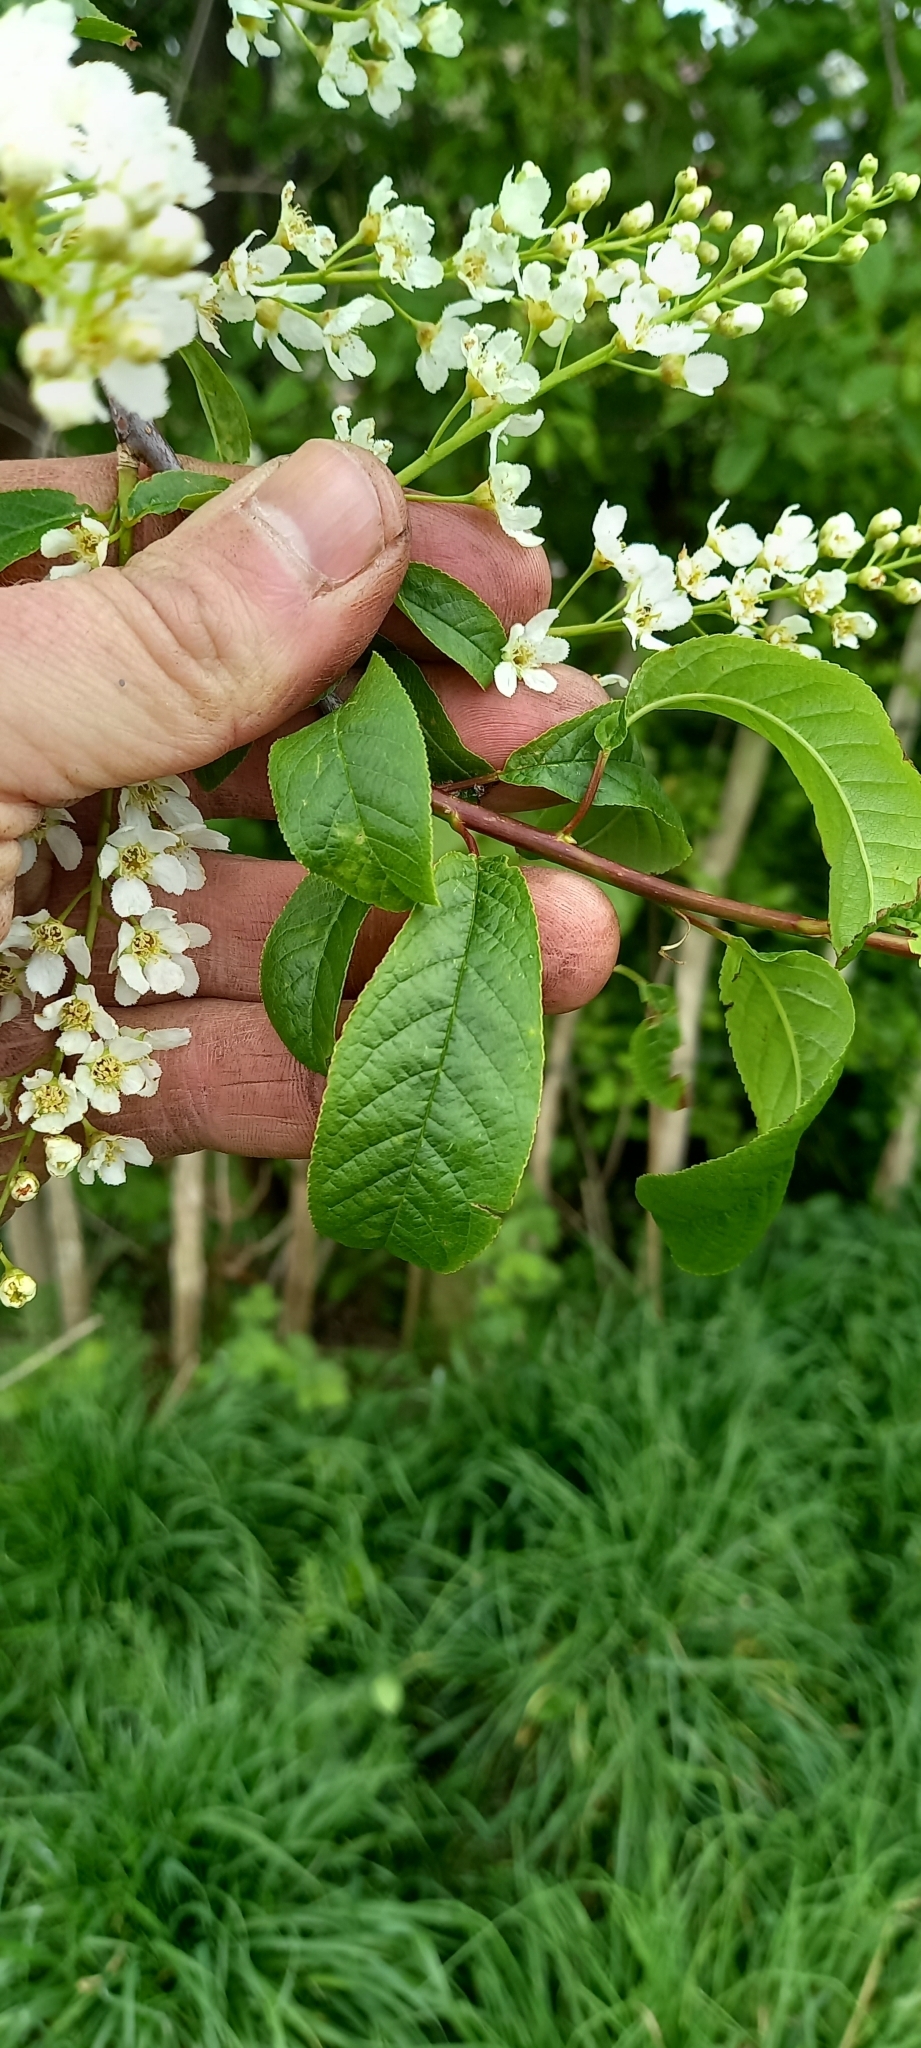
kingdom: Plantae
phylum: Tracheophyta
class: Magnoliopsida
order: Rosales
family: Rosaceae
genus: Prunus
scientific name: Prunus padus
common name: Bird cherry
